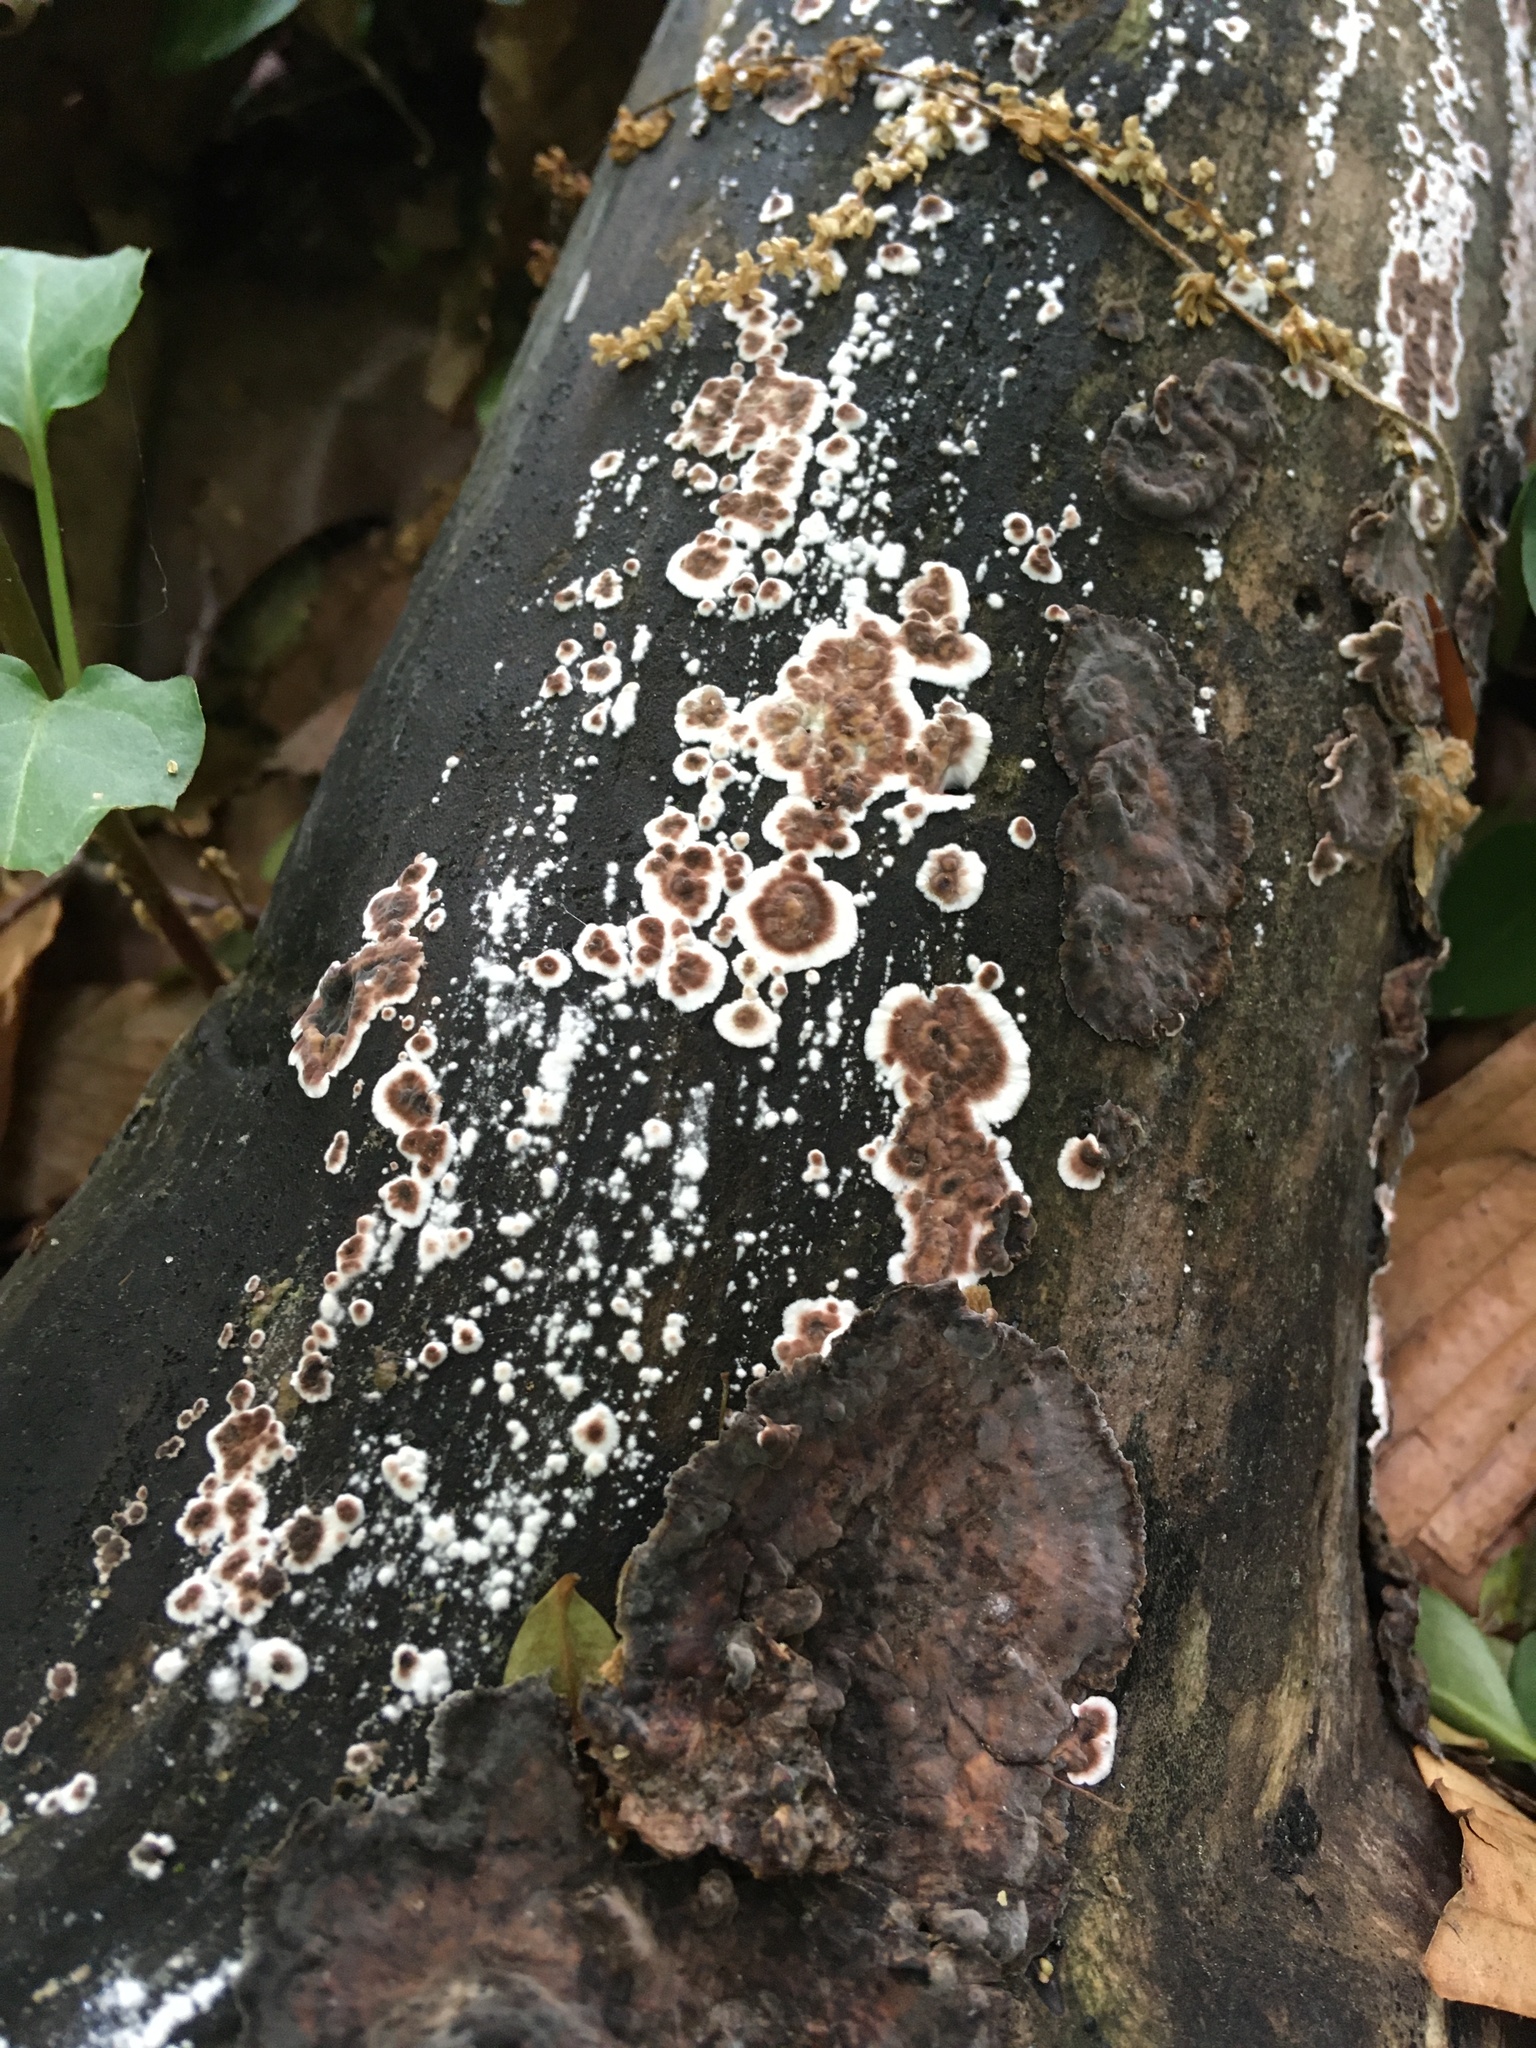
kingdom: Fungi
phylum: Basidiomycota
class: Agaricomycetes
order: Russulales
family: Peniophoraceae
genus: Peniophora
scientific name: Peniophora albobadia
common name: Giraffe spots
